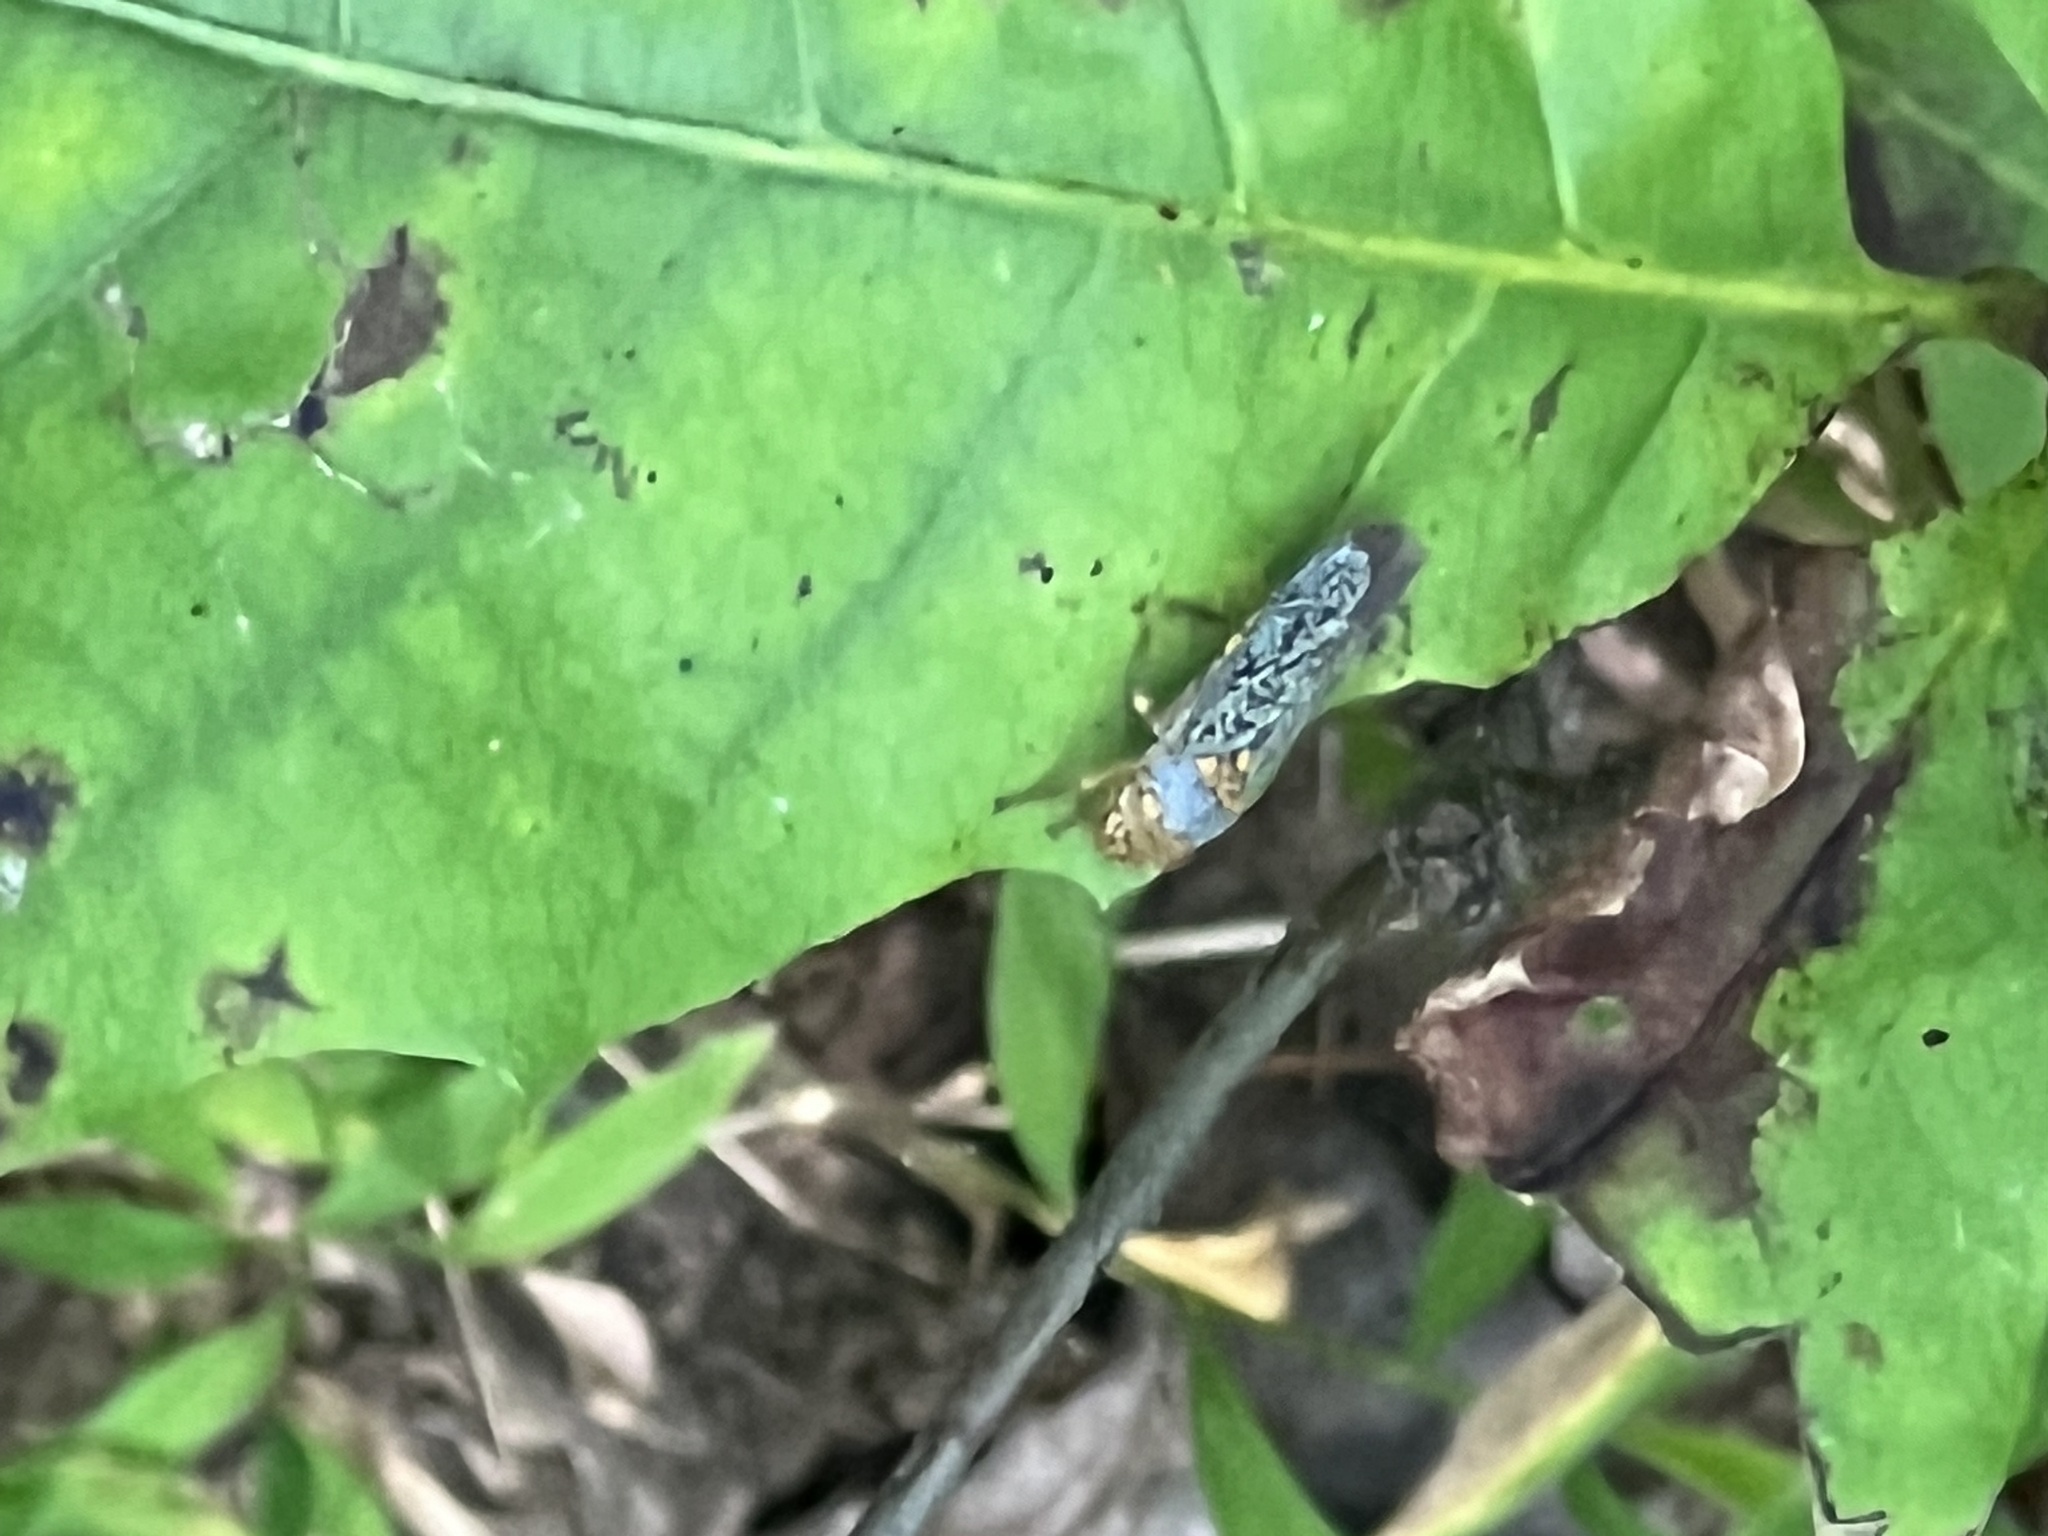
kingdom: Animalia
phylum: Arthropoda
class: Insecta
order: Hemiptera
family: Cicadellidae
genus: Oncometopia
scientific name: Oncometopia orbona
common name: Broad-headed sharpshooter
